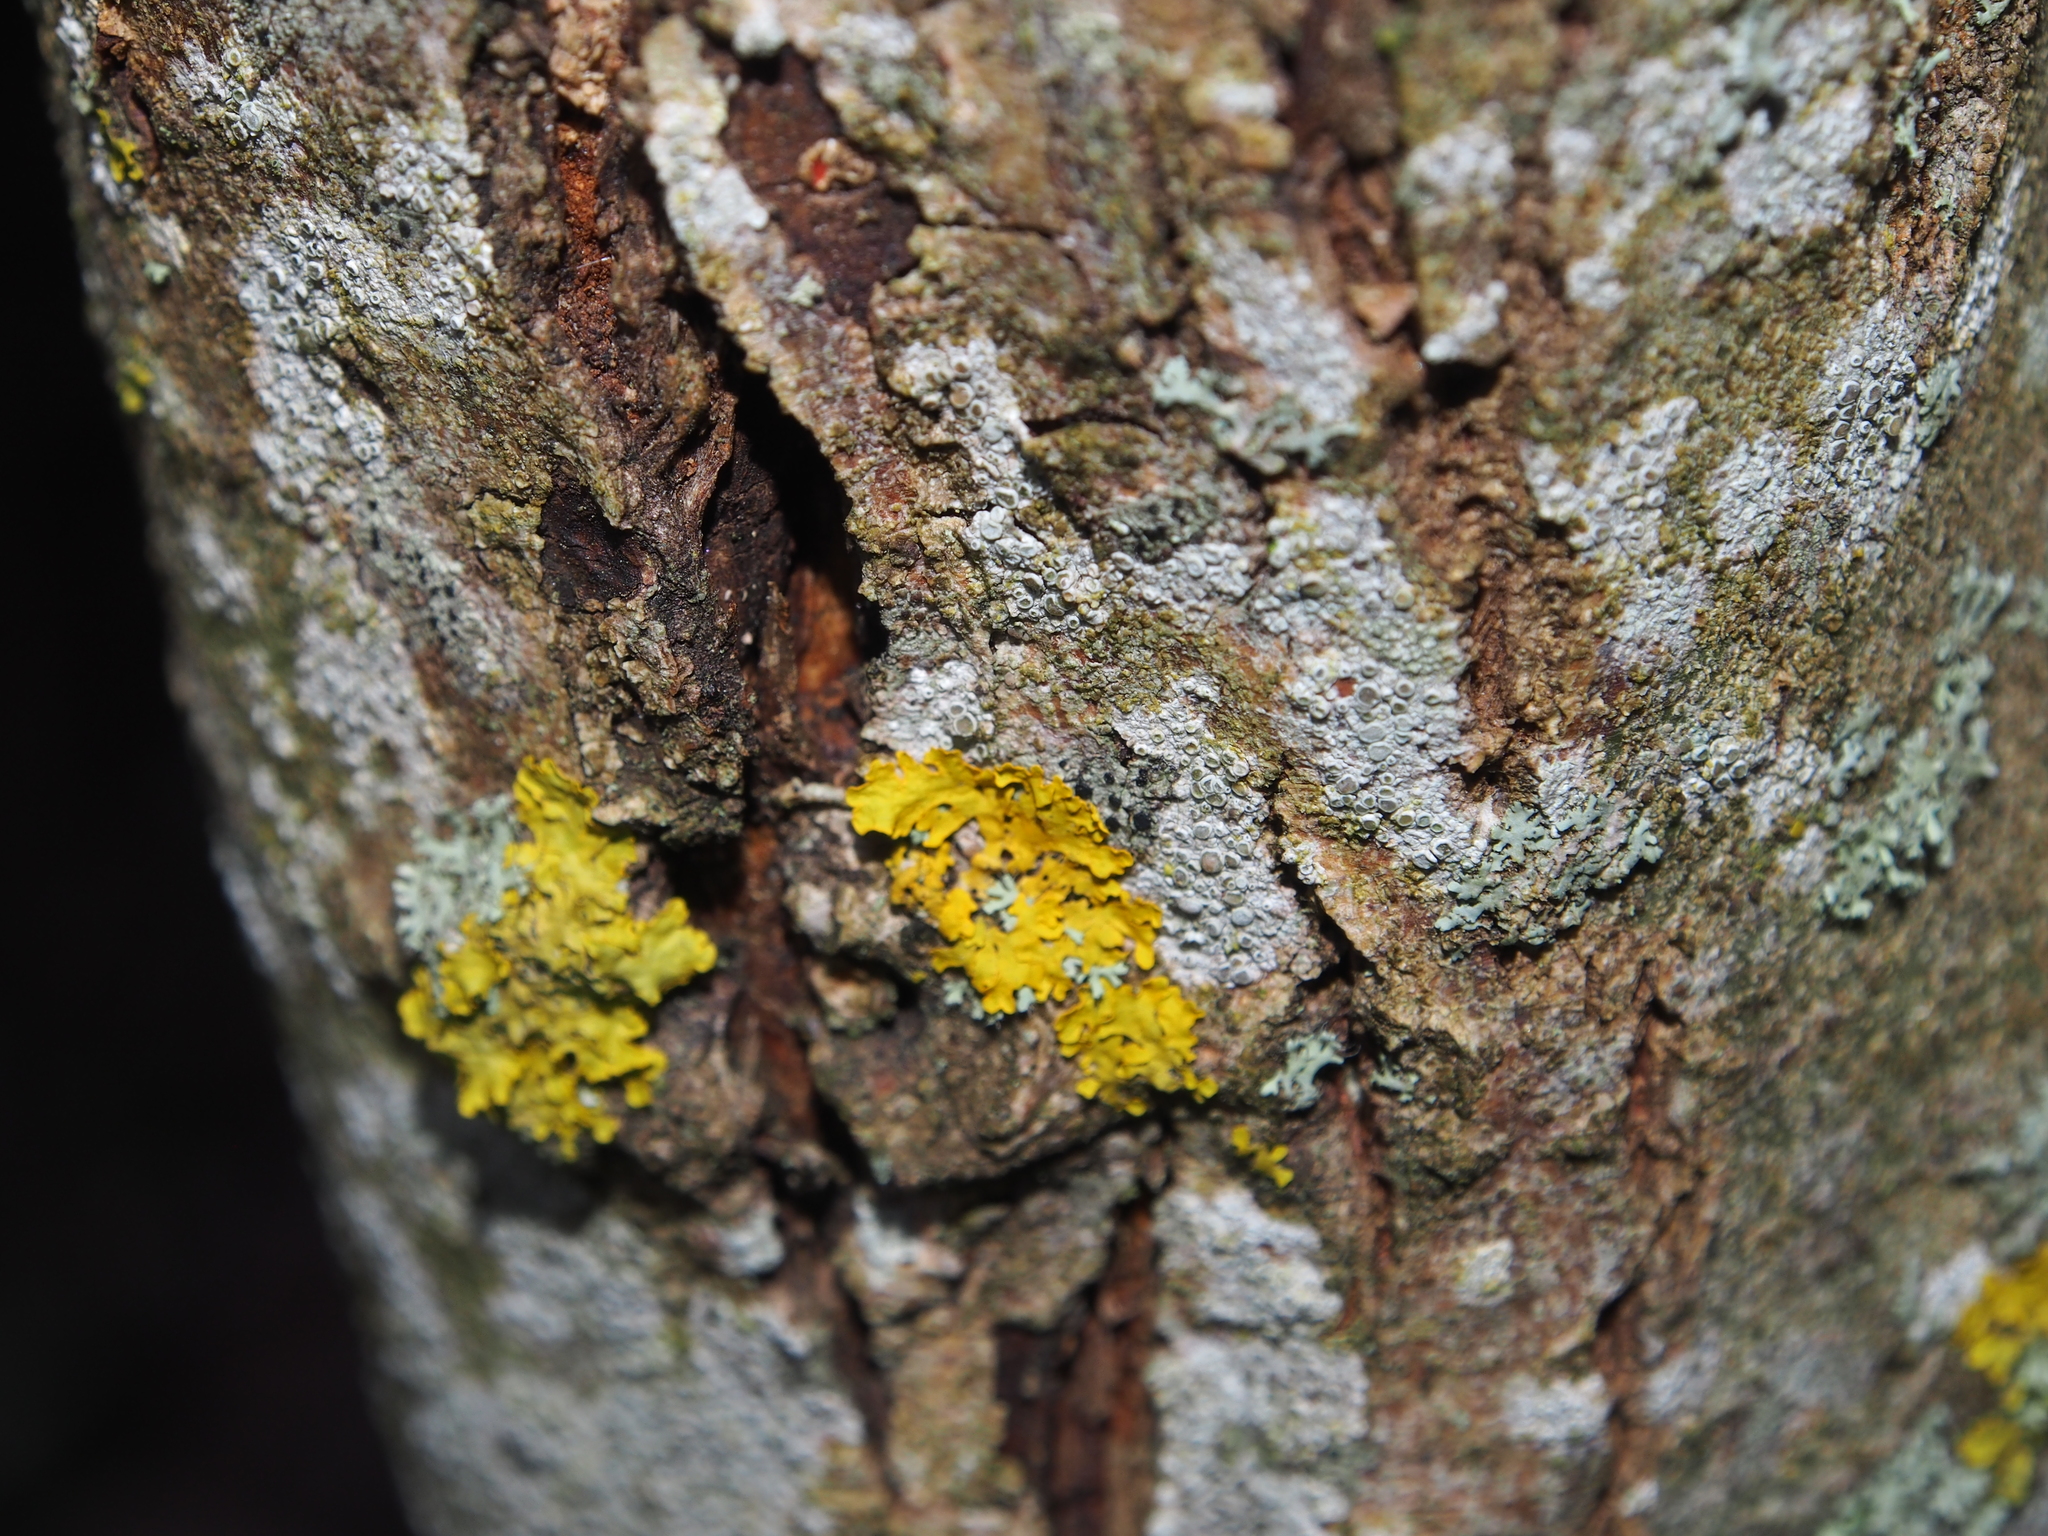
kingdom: Fungi
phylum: Ascomycota
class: Lecanoromycetes
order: Lecanorales
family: Lecanoraceae
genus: Lecidella
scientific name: Lecidella elaeochroma
